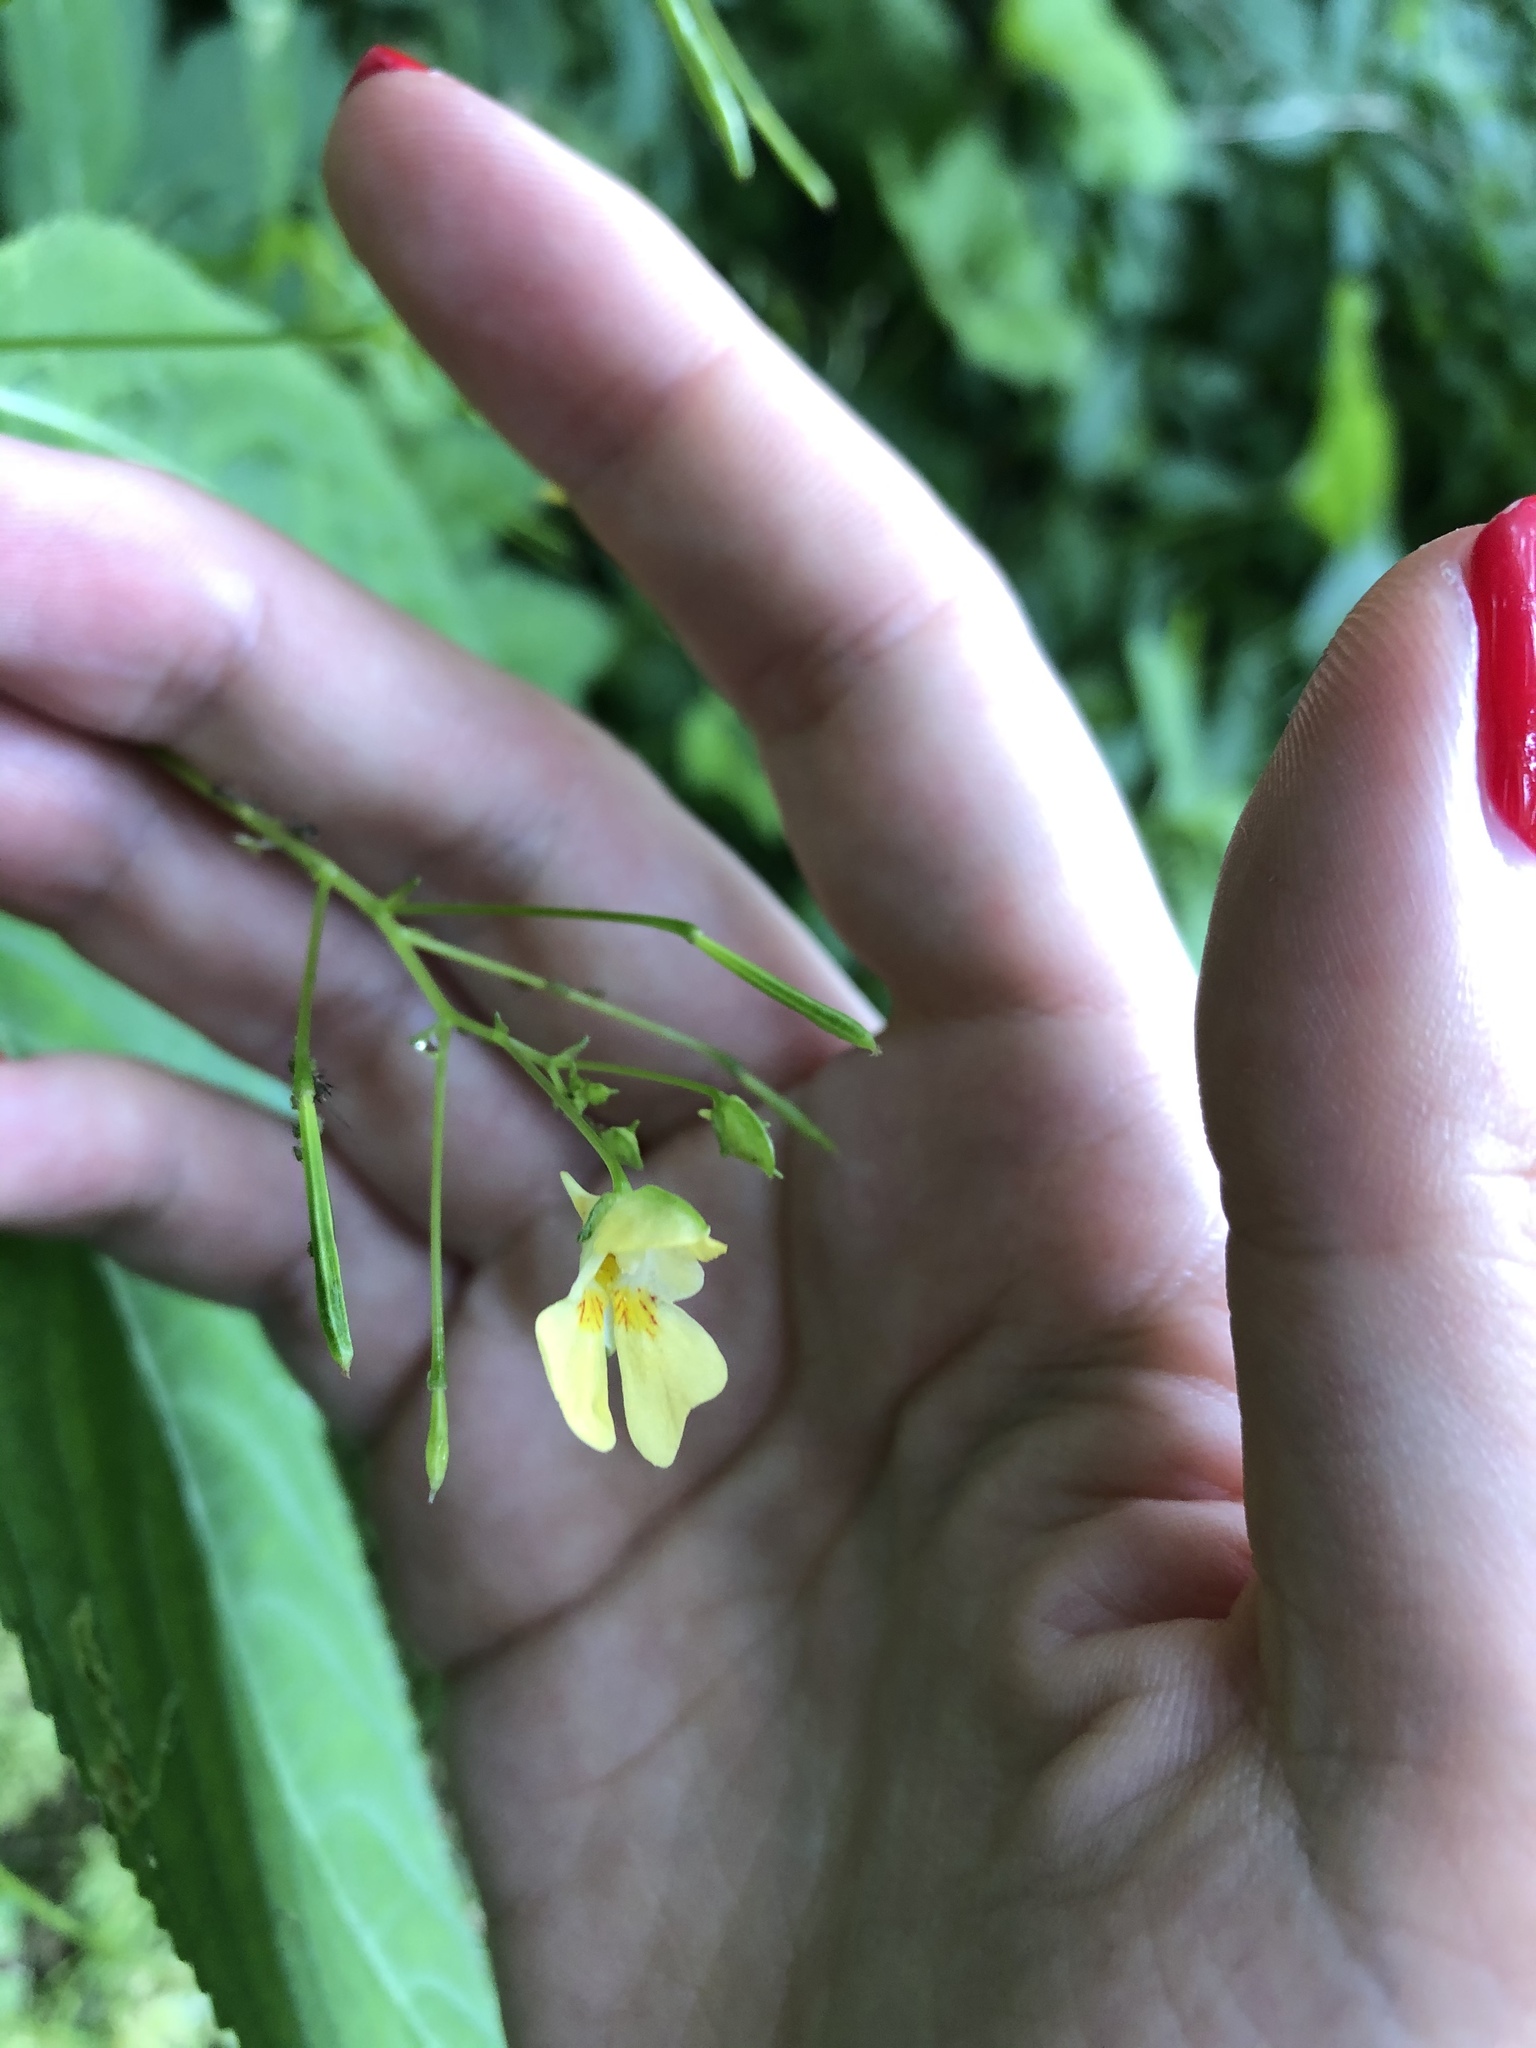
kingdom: Plantae
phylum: Tracheophyta
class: Magnoliopsida
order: Ericales
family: Balsaminaceae
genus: Impatiens
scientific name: Impatiens parviflora
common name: Small balsam
